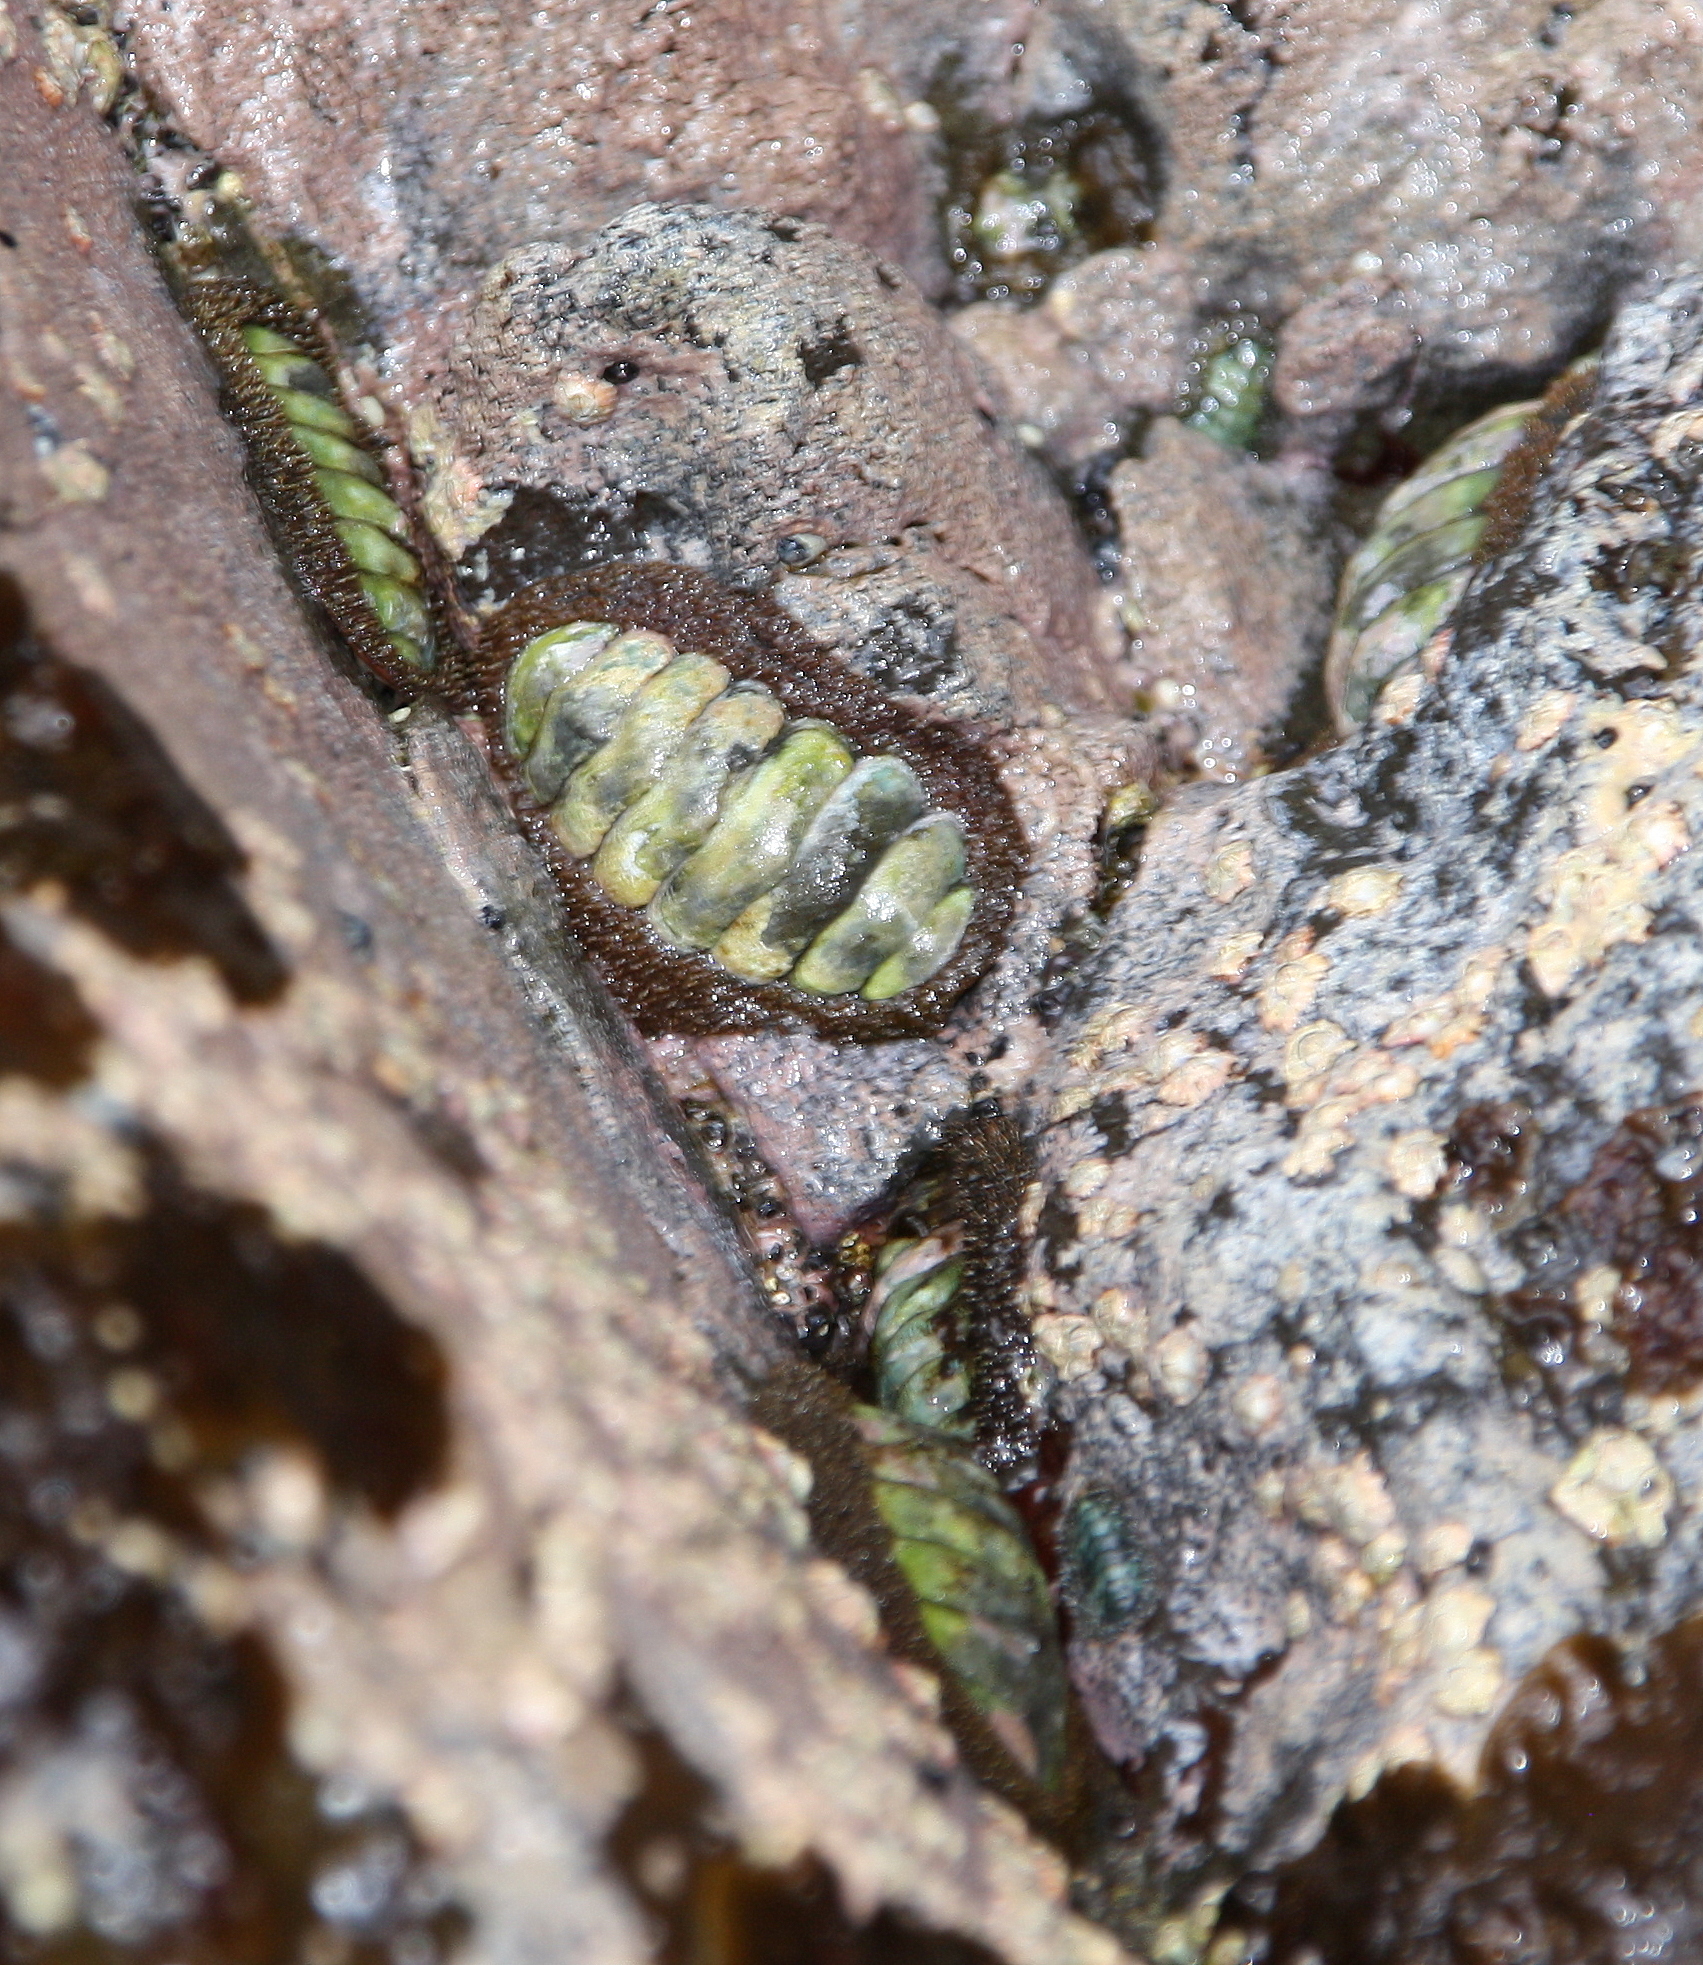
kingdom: Animalia
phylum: Mollusca
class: Polyplacophora
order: Chitonida
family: Mopaliidae
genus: Plaxiphora
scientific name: Plaxiphora mercatoris
